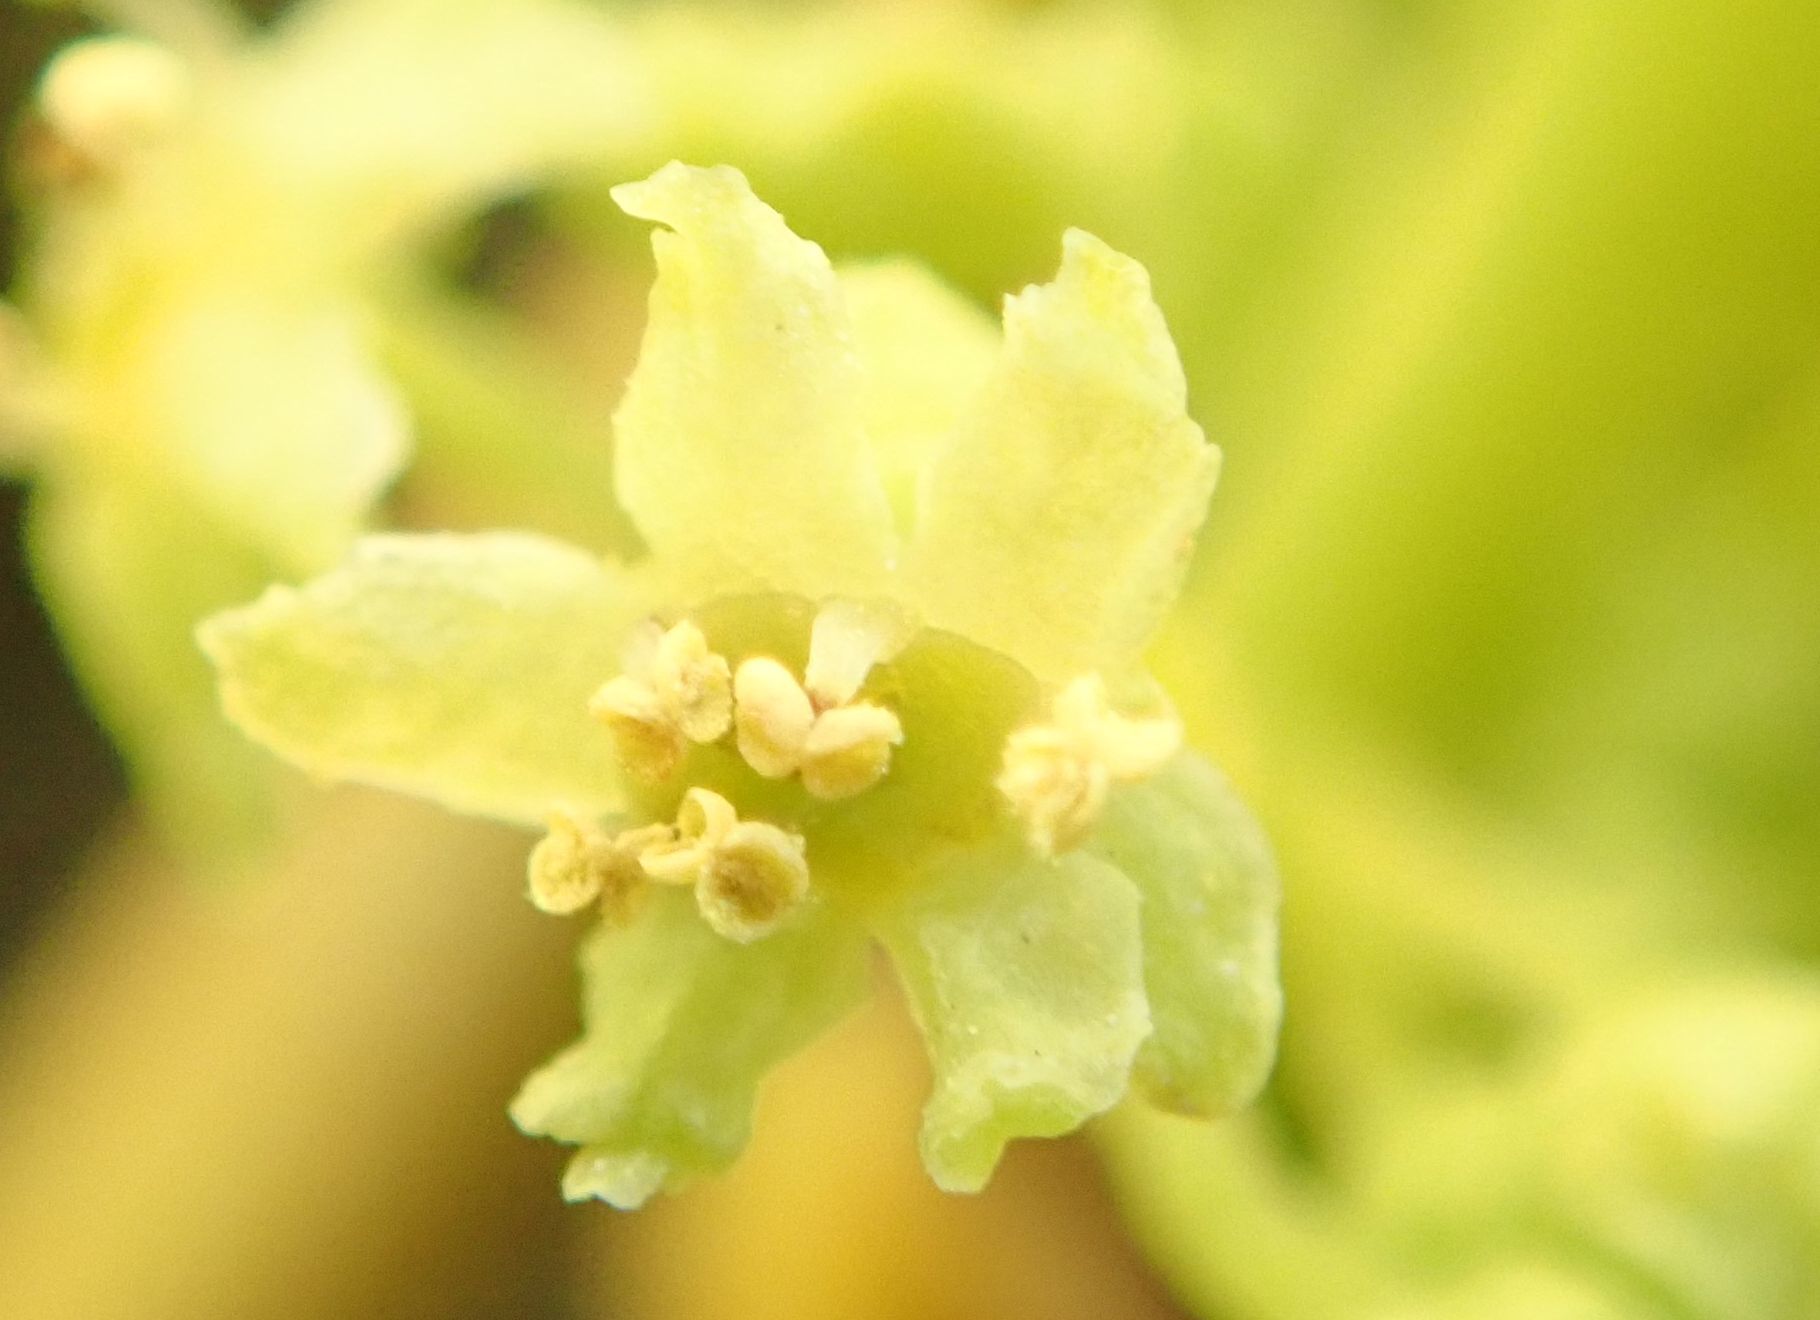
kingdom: Plantae
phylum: Tracheophyta
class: Magnoliopsida
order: Apiales
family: Griseliniaceae
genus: Griselinia
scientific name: Griselinia littoralis
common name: New zealand broadleaf
